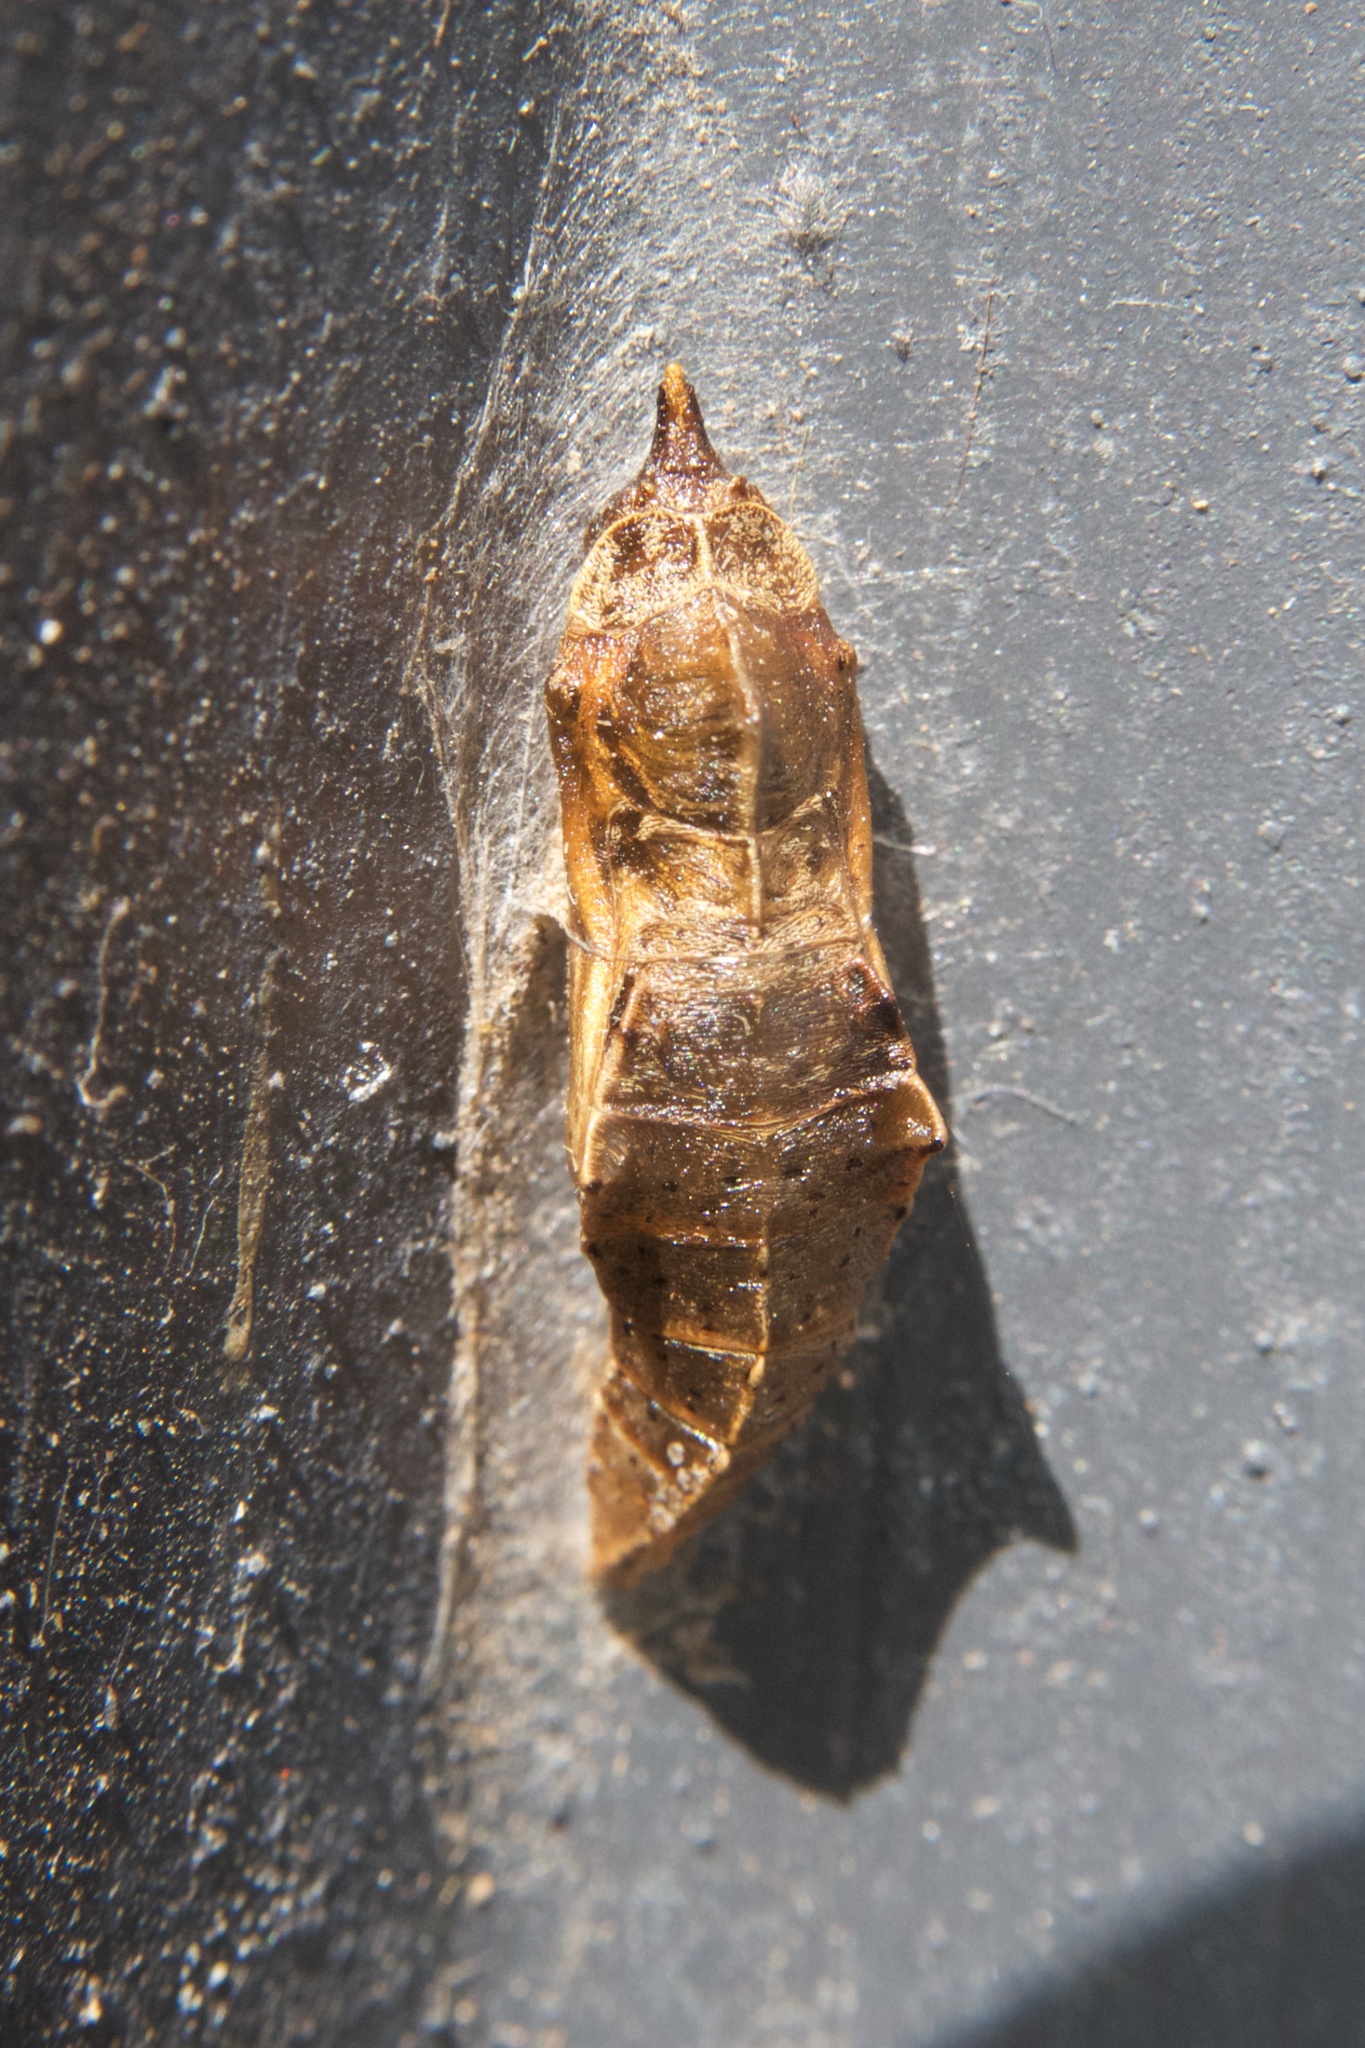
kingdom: Animalia
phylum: Arthropoda
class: Insecta
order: Lepidoptera
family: Pieridae
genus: Pieris
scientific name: Pieris rapae
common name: Small white
